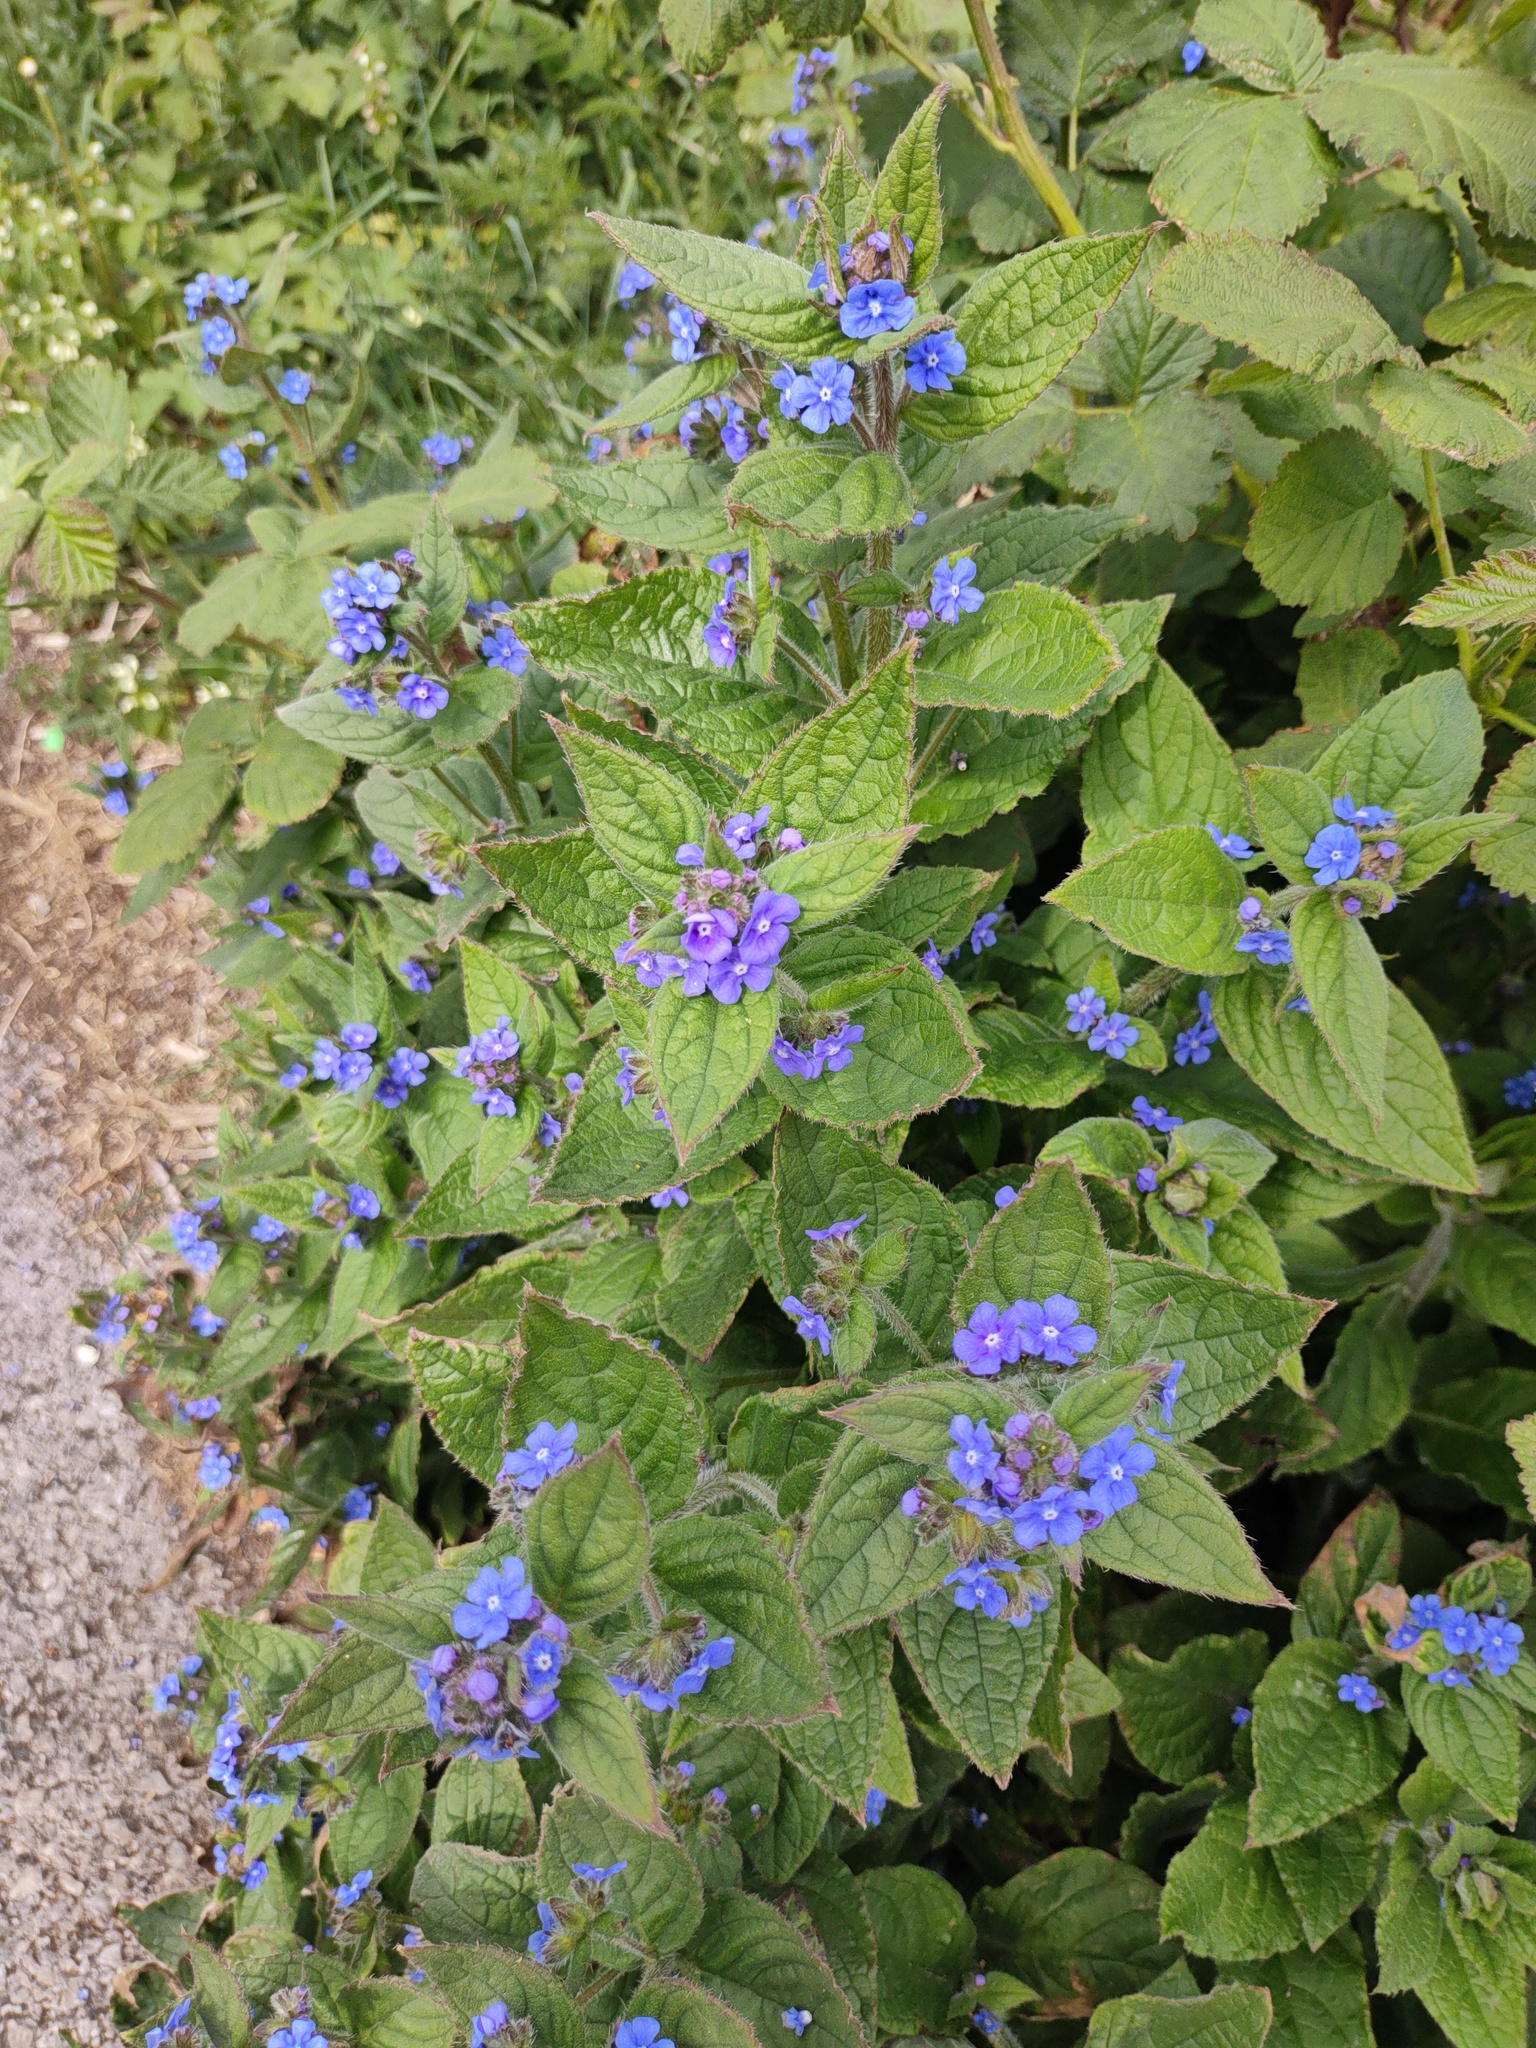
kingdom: Plantae
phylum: Tracheophyta
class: Magnoliopsida
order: Boraginales
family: Boraginaceae
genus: Pentaglottis
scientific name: Pentaglottis sempervirens
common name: Green alkanet
